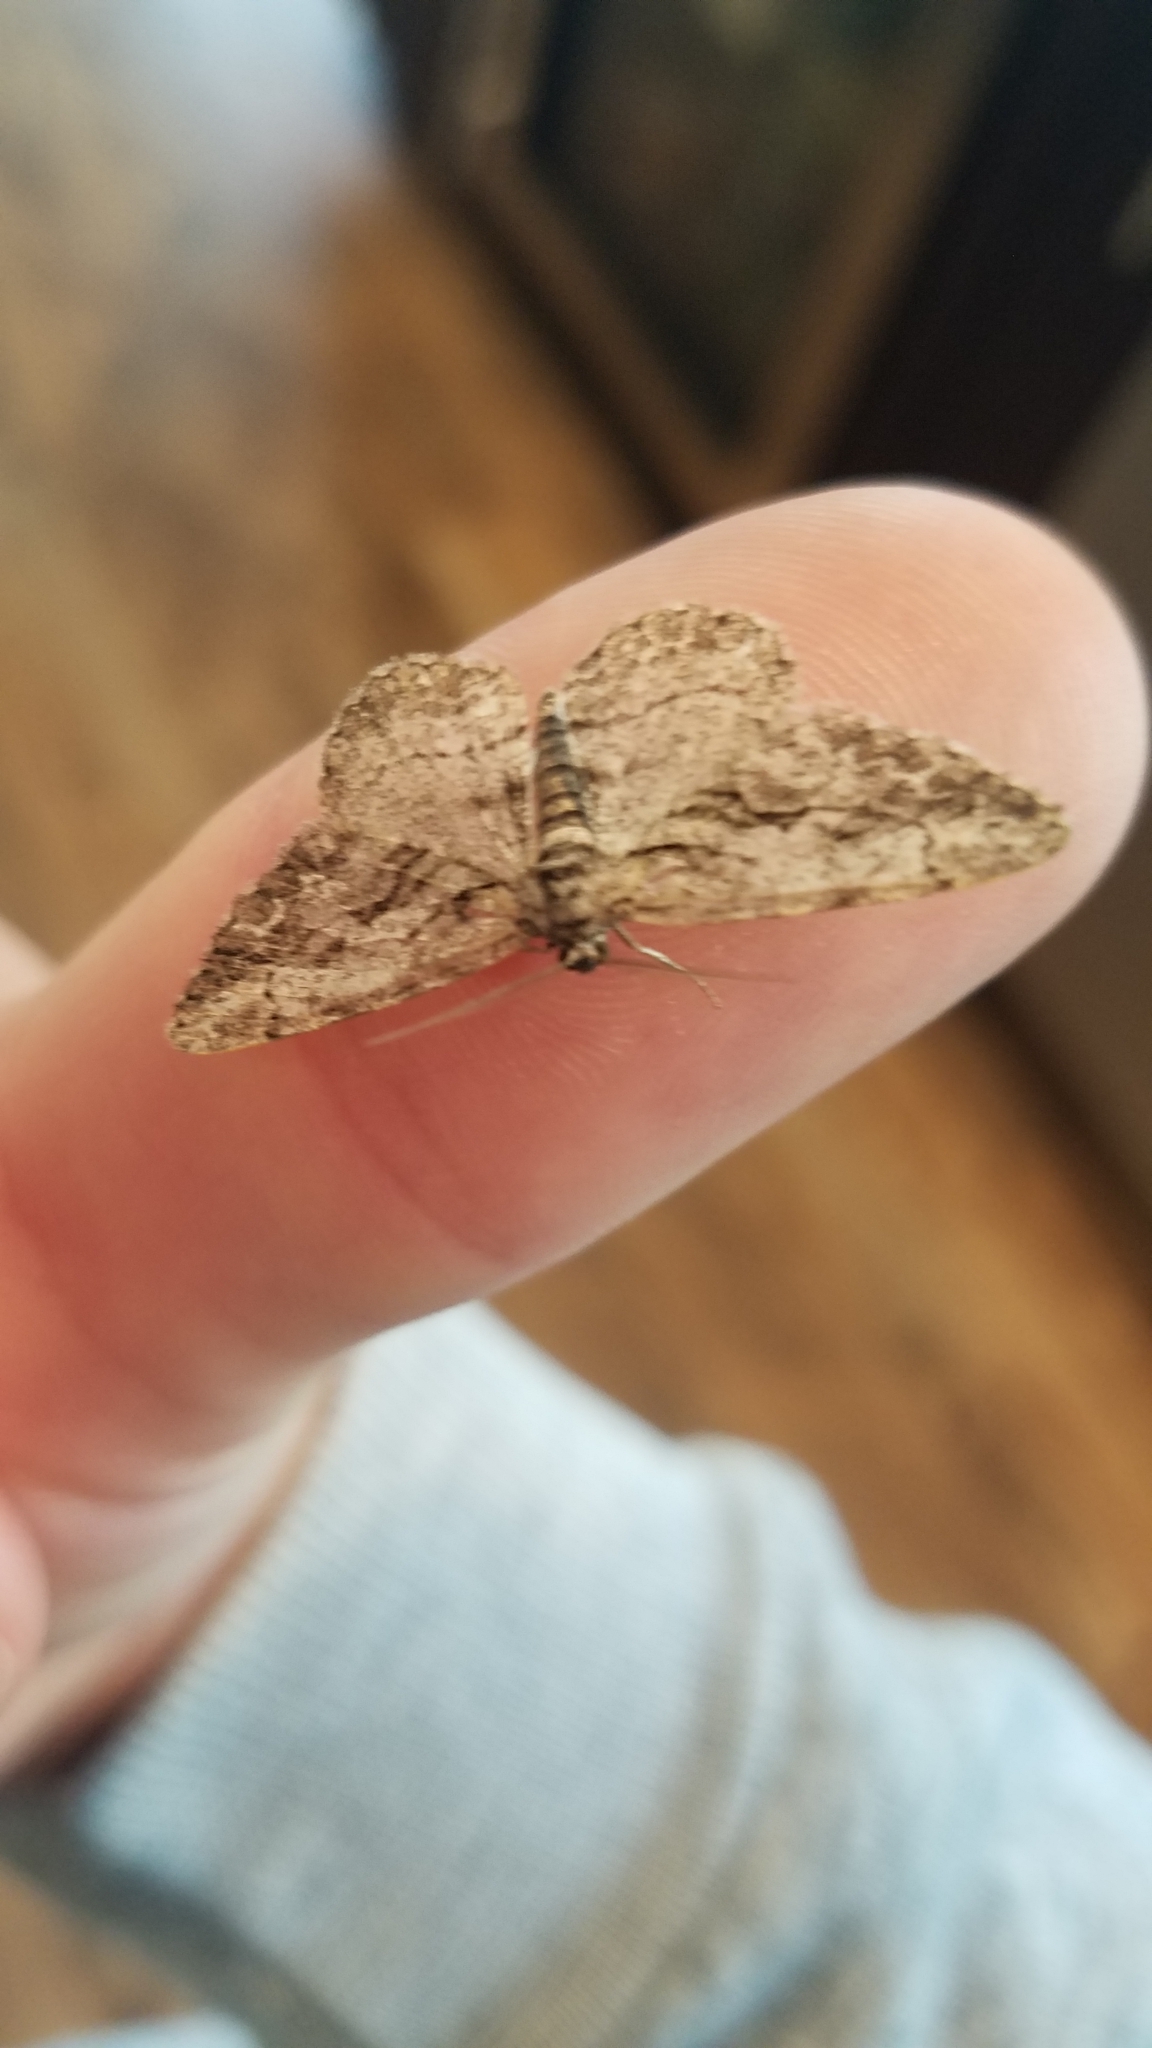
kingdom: Animalia
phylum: Arthropoda
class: Insecta
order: Lepidoptera
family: Geometridae
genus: Anavitrinella
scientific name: Anavitrinella pampinaria
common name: Common gray
